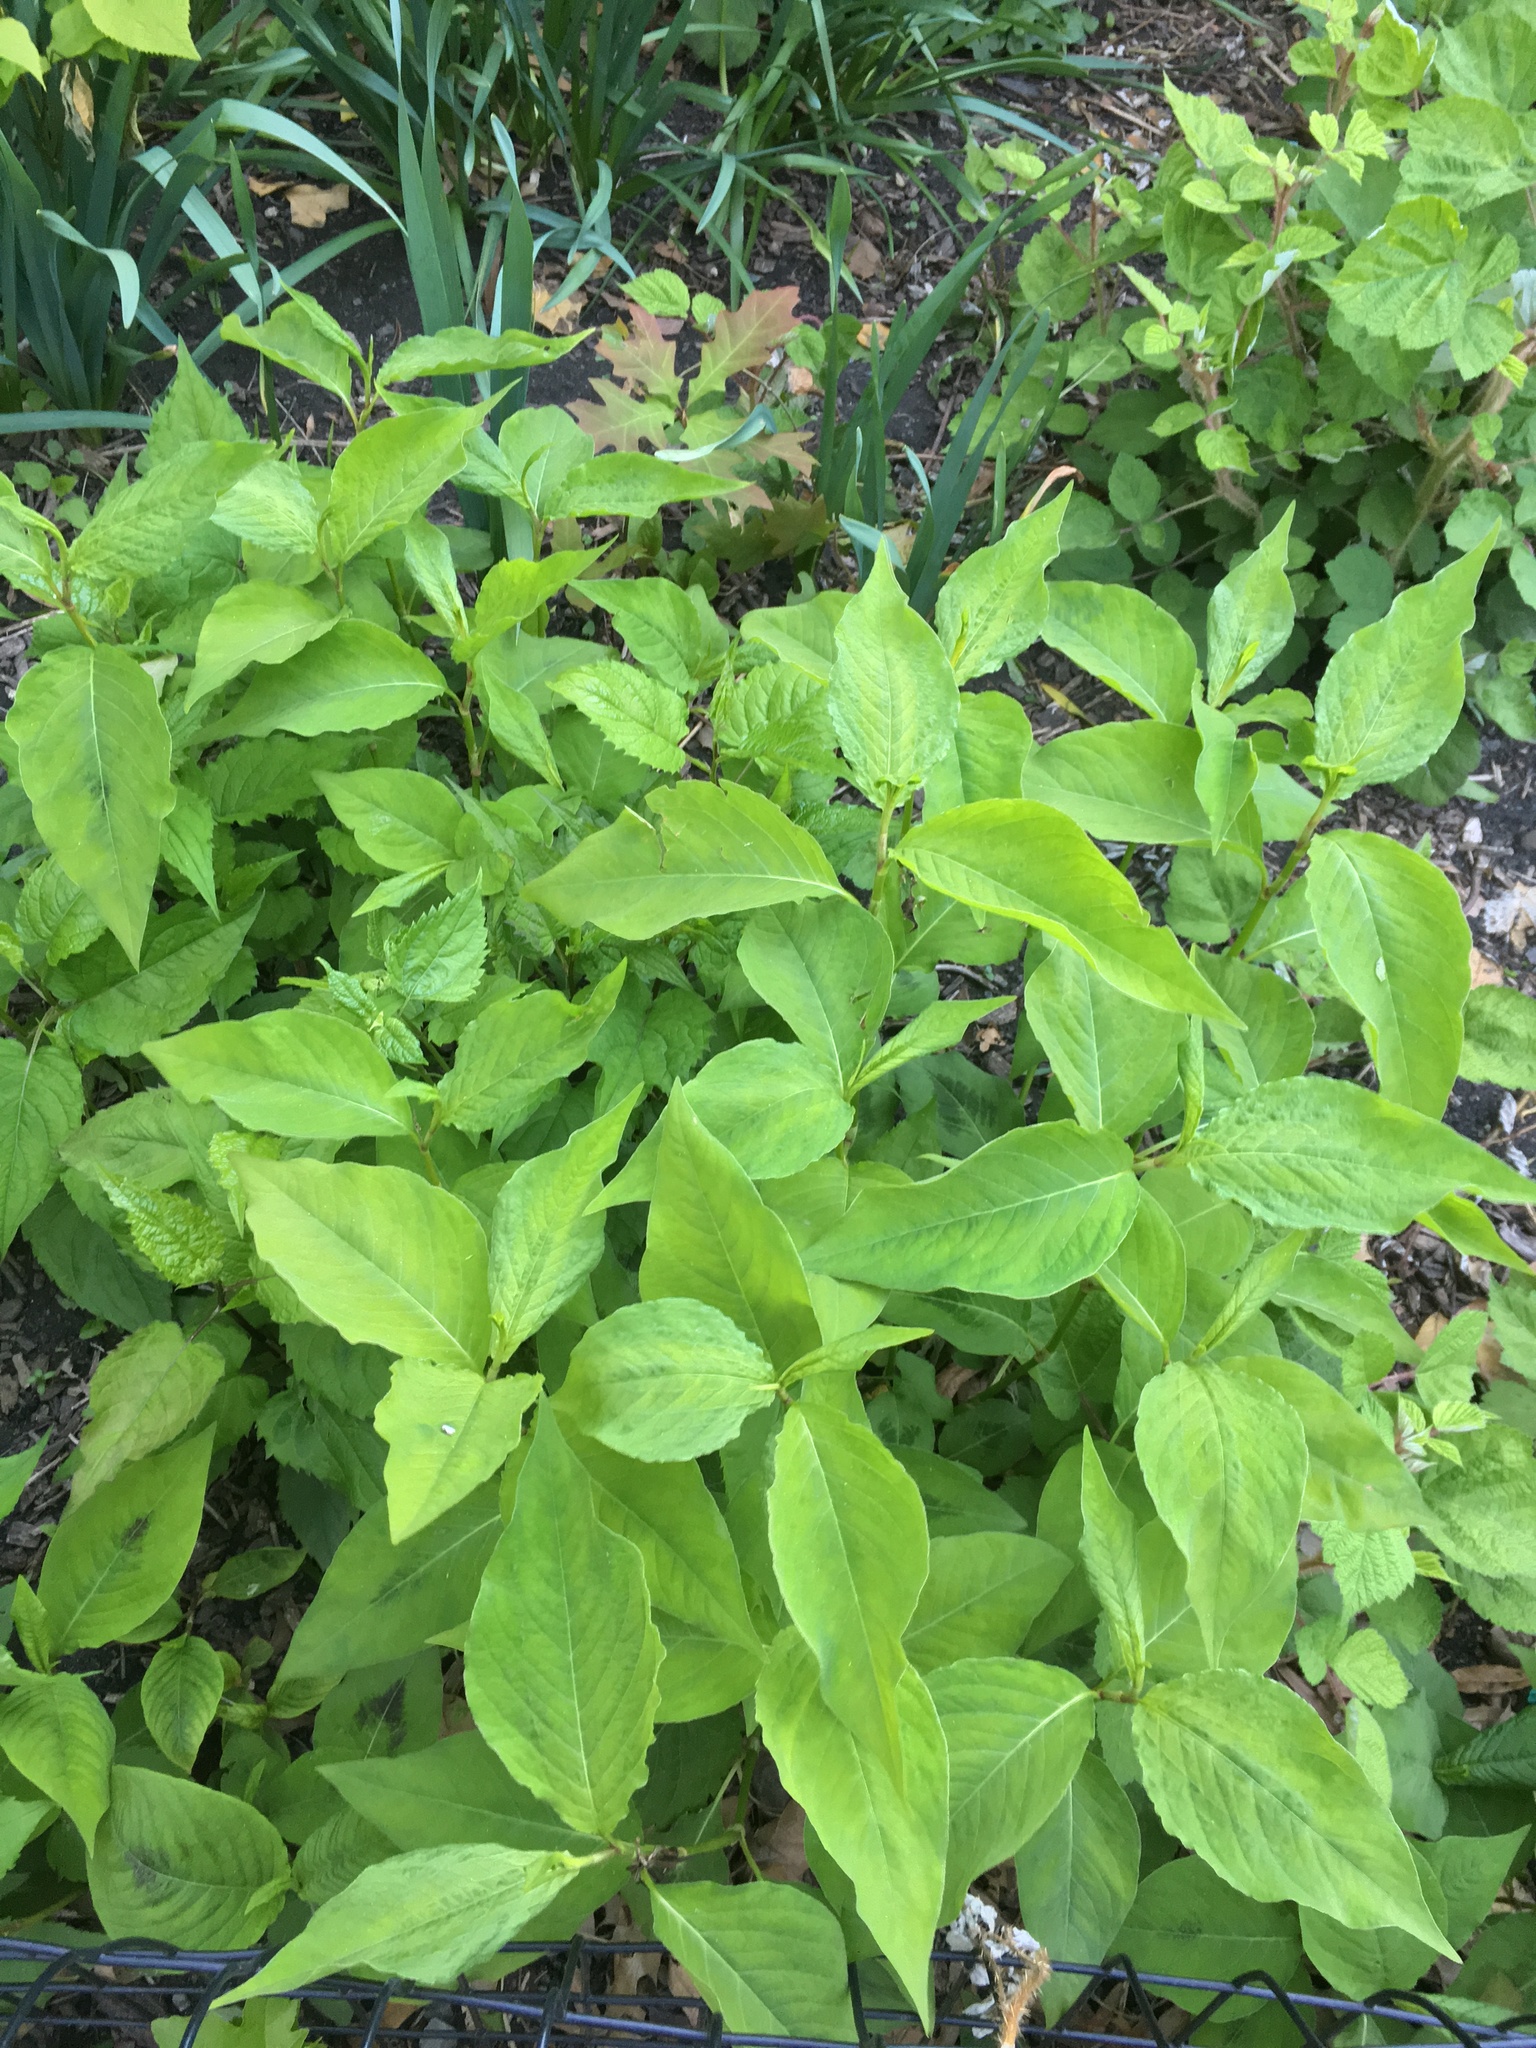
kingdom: Plantae
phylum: Tracheophyta
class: Magnoliopsida
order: Caryophyllales
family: Polygonaceae
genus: Persicaria
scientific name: Persicaria virginiana
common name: Jumpseed
